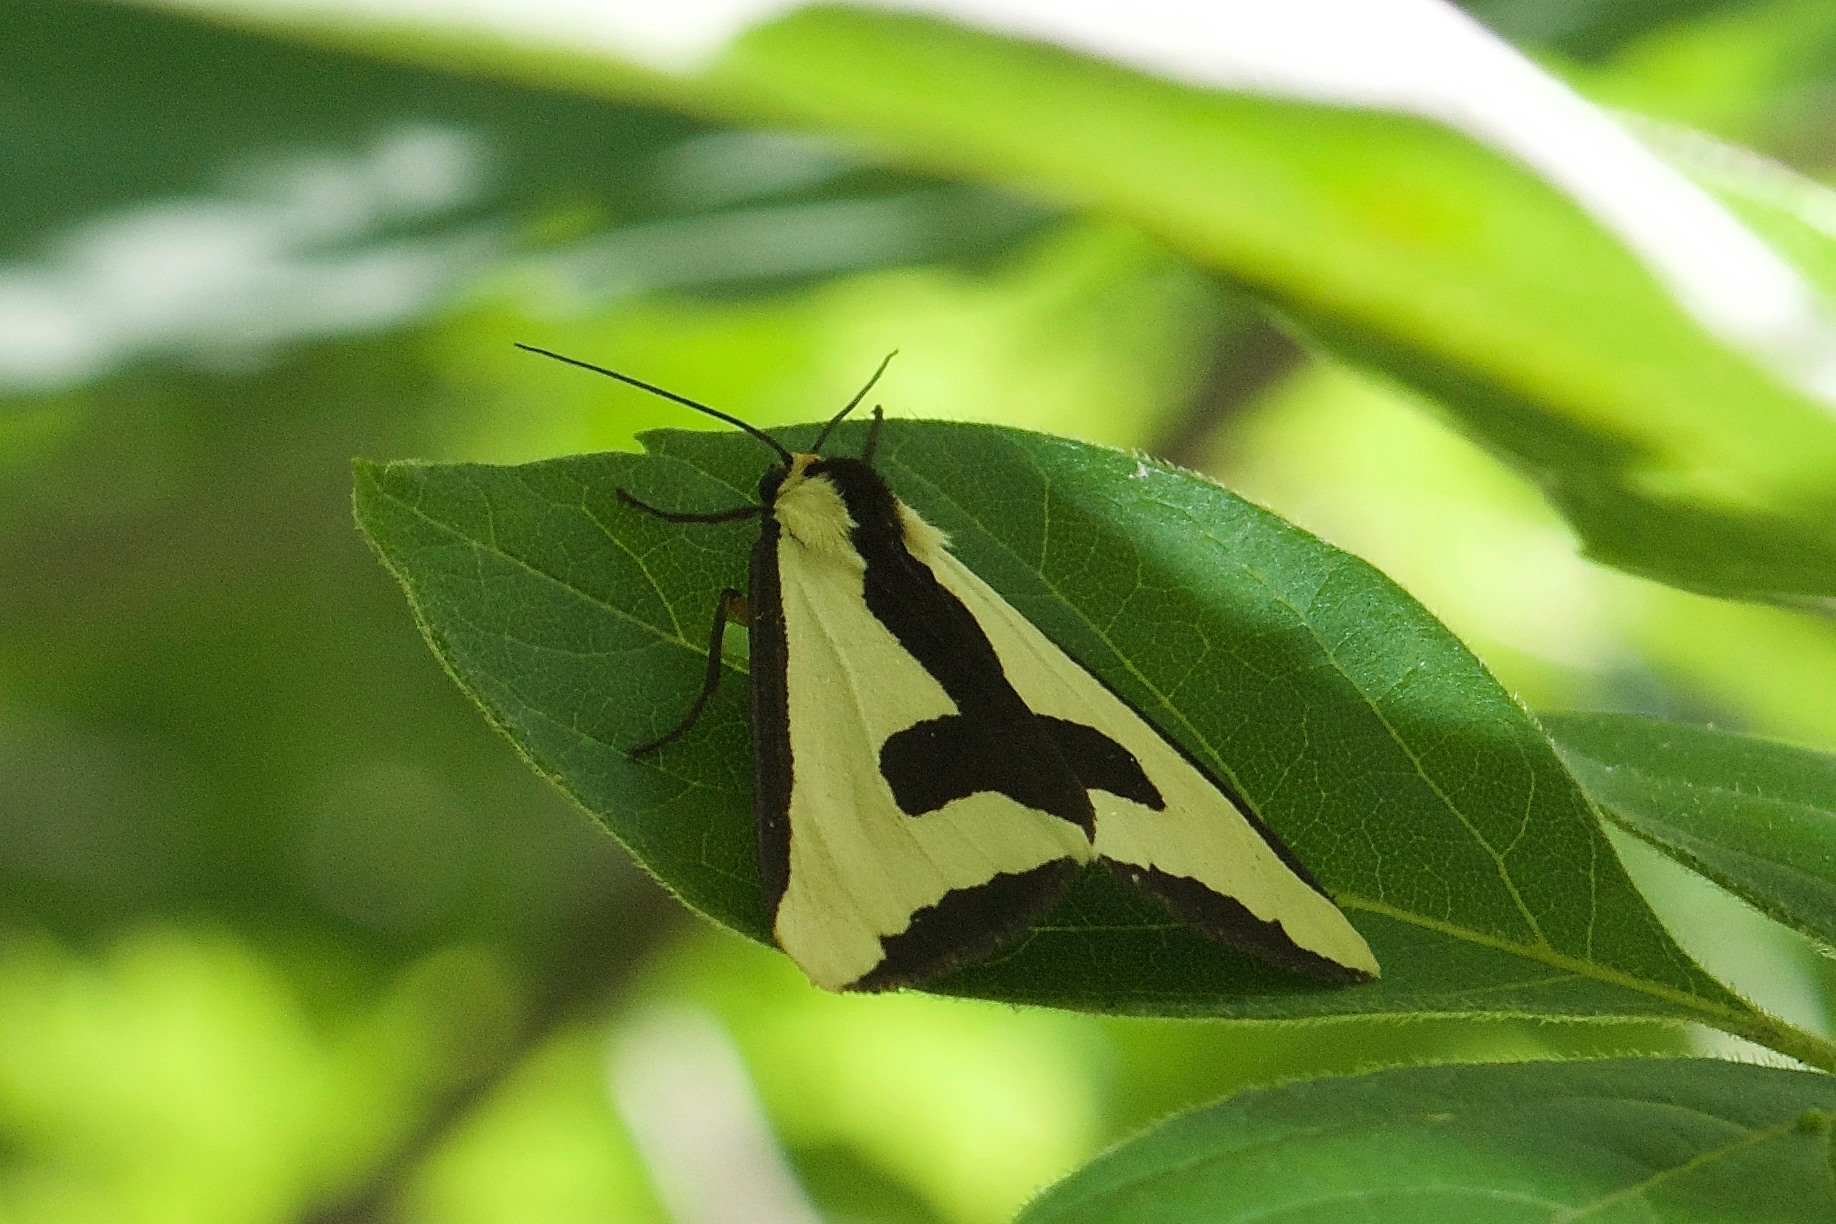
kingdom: Animalia
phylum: Arthropoda
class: Insecta
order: Lepidoptera
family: Erebidae
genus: Haploa
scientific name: Haploa clymene
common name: Clymene moth
